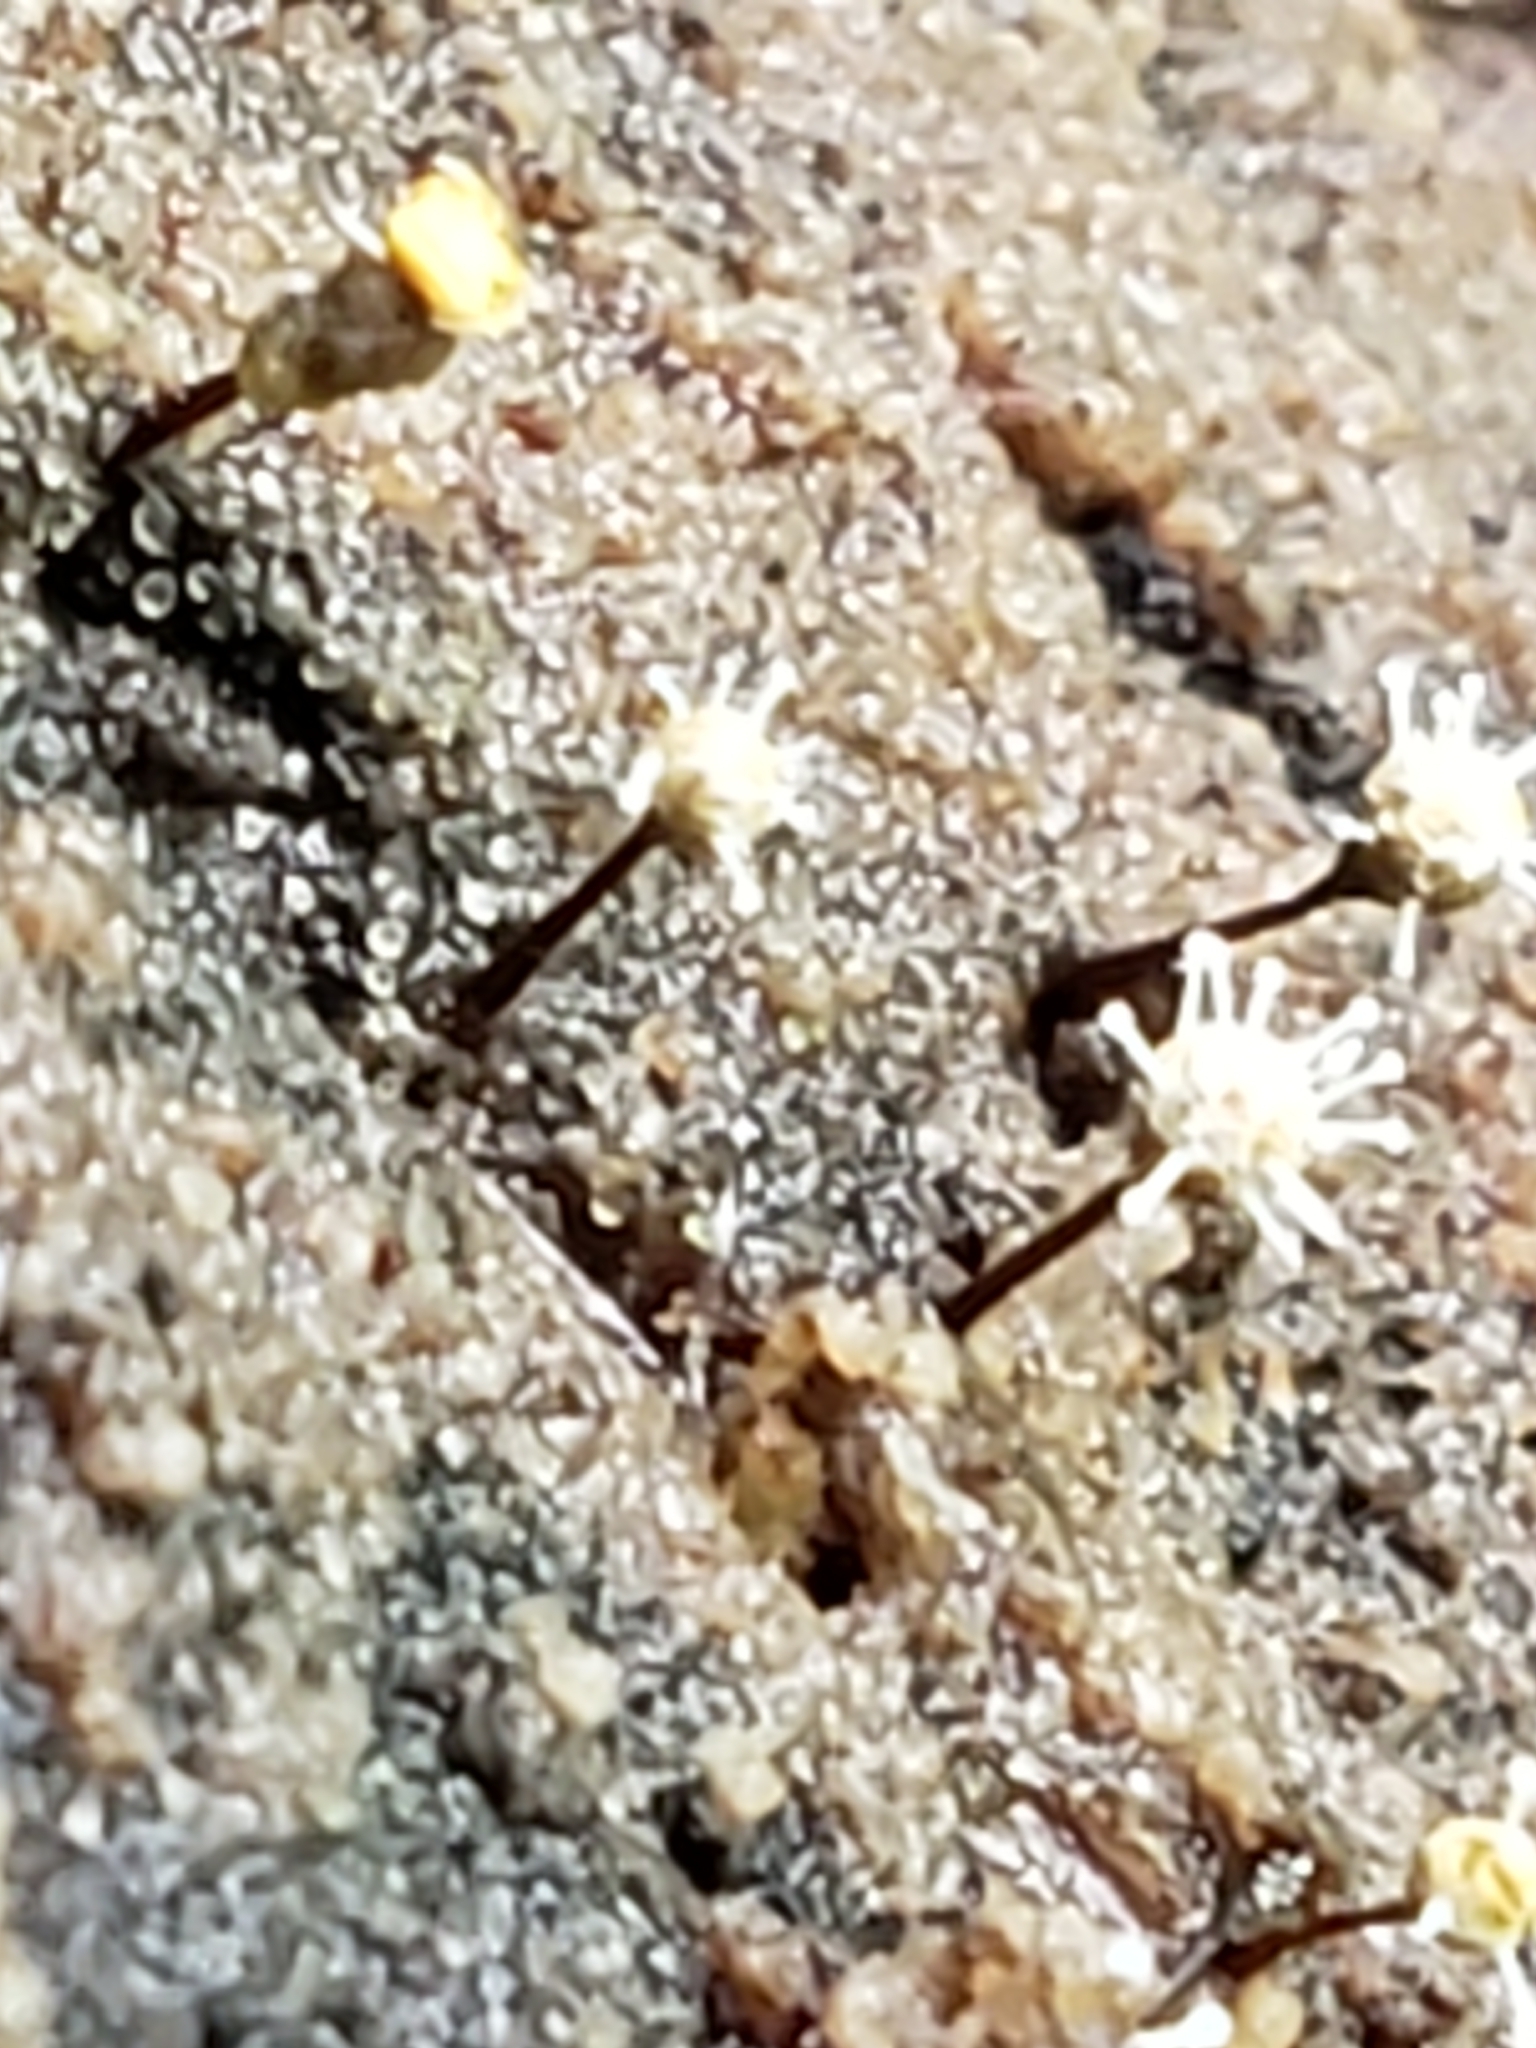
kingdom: Fungi
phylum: Ascomycota
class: Sordariomycetes
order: Hypocreales
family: Ophiocordycipitaceae
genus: Polycephalomyces
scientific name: Polycephalomyces tomentosus
